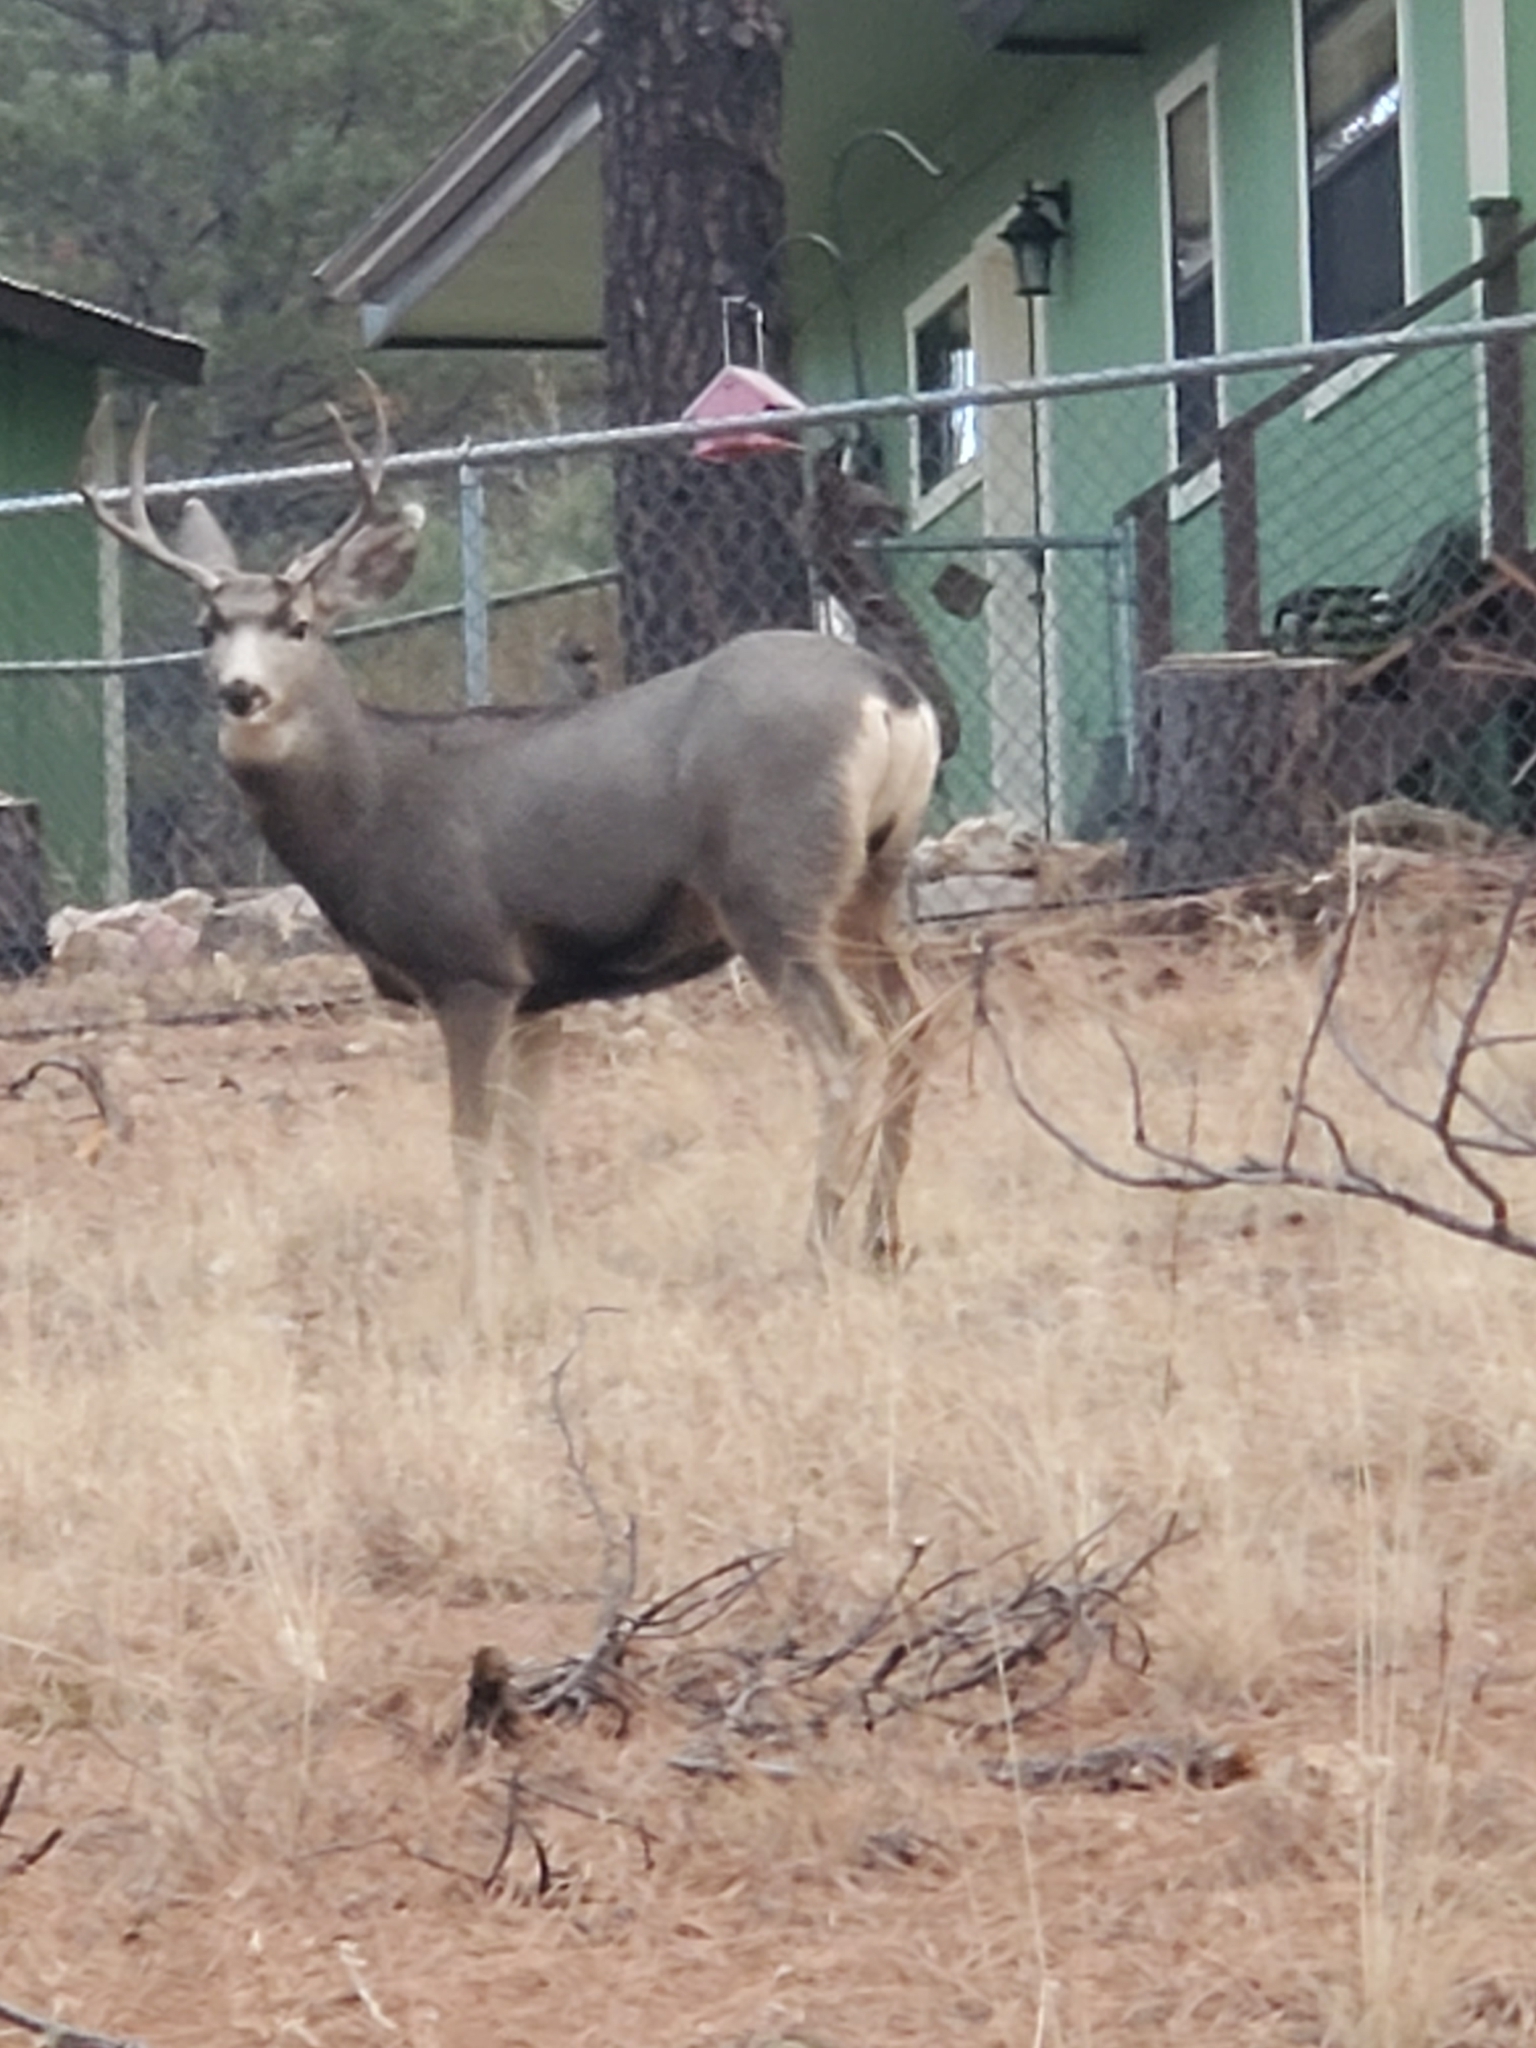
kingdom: Animalia
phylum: Chordata
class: Mammalia
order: Artiodactyla
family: Cervidae
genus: Odocoileus
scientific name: Odocoileus hemionus
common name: Mule deer
